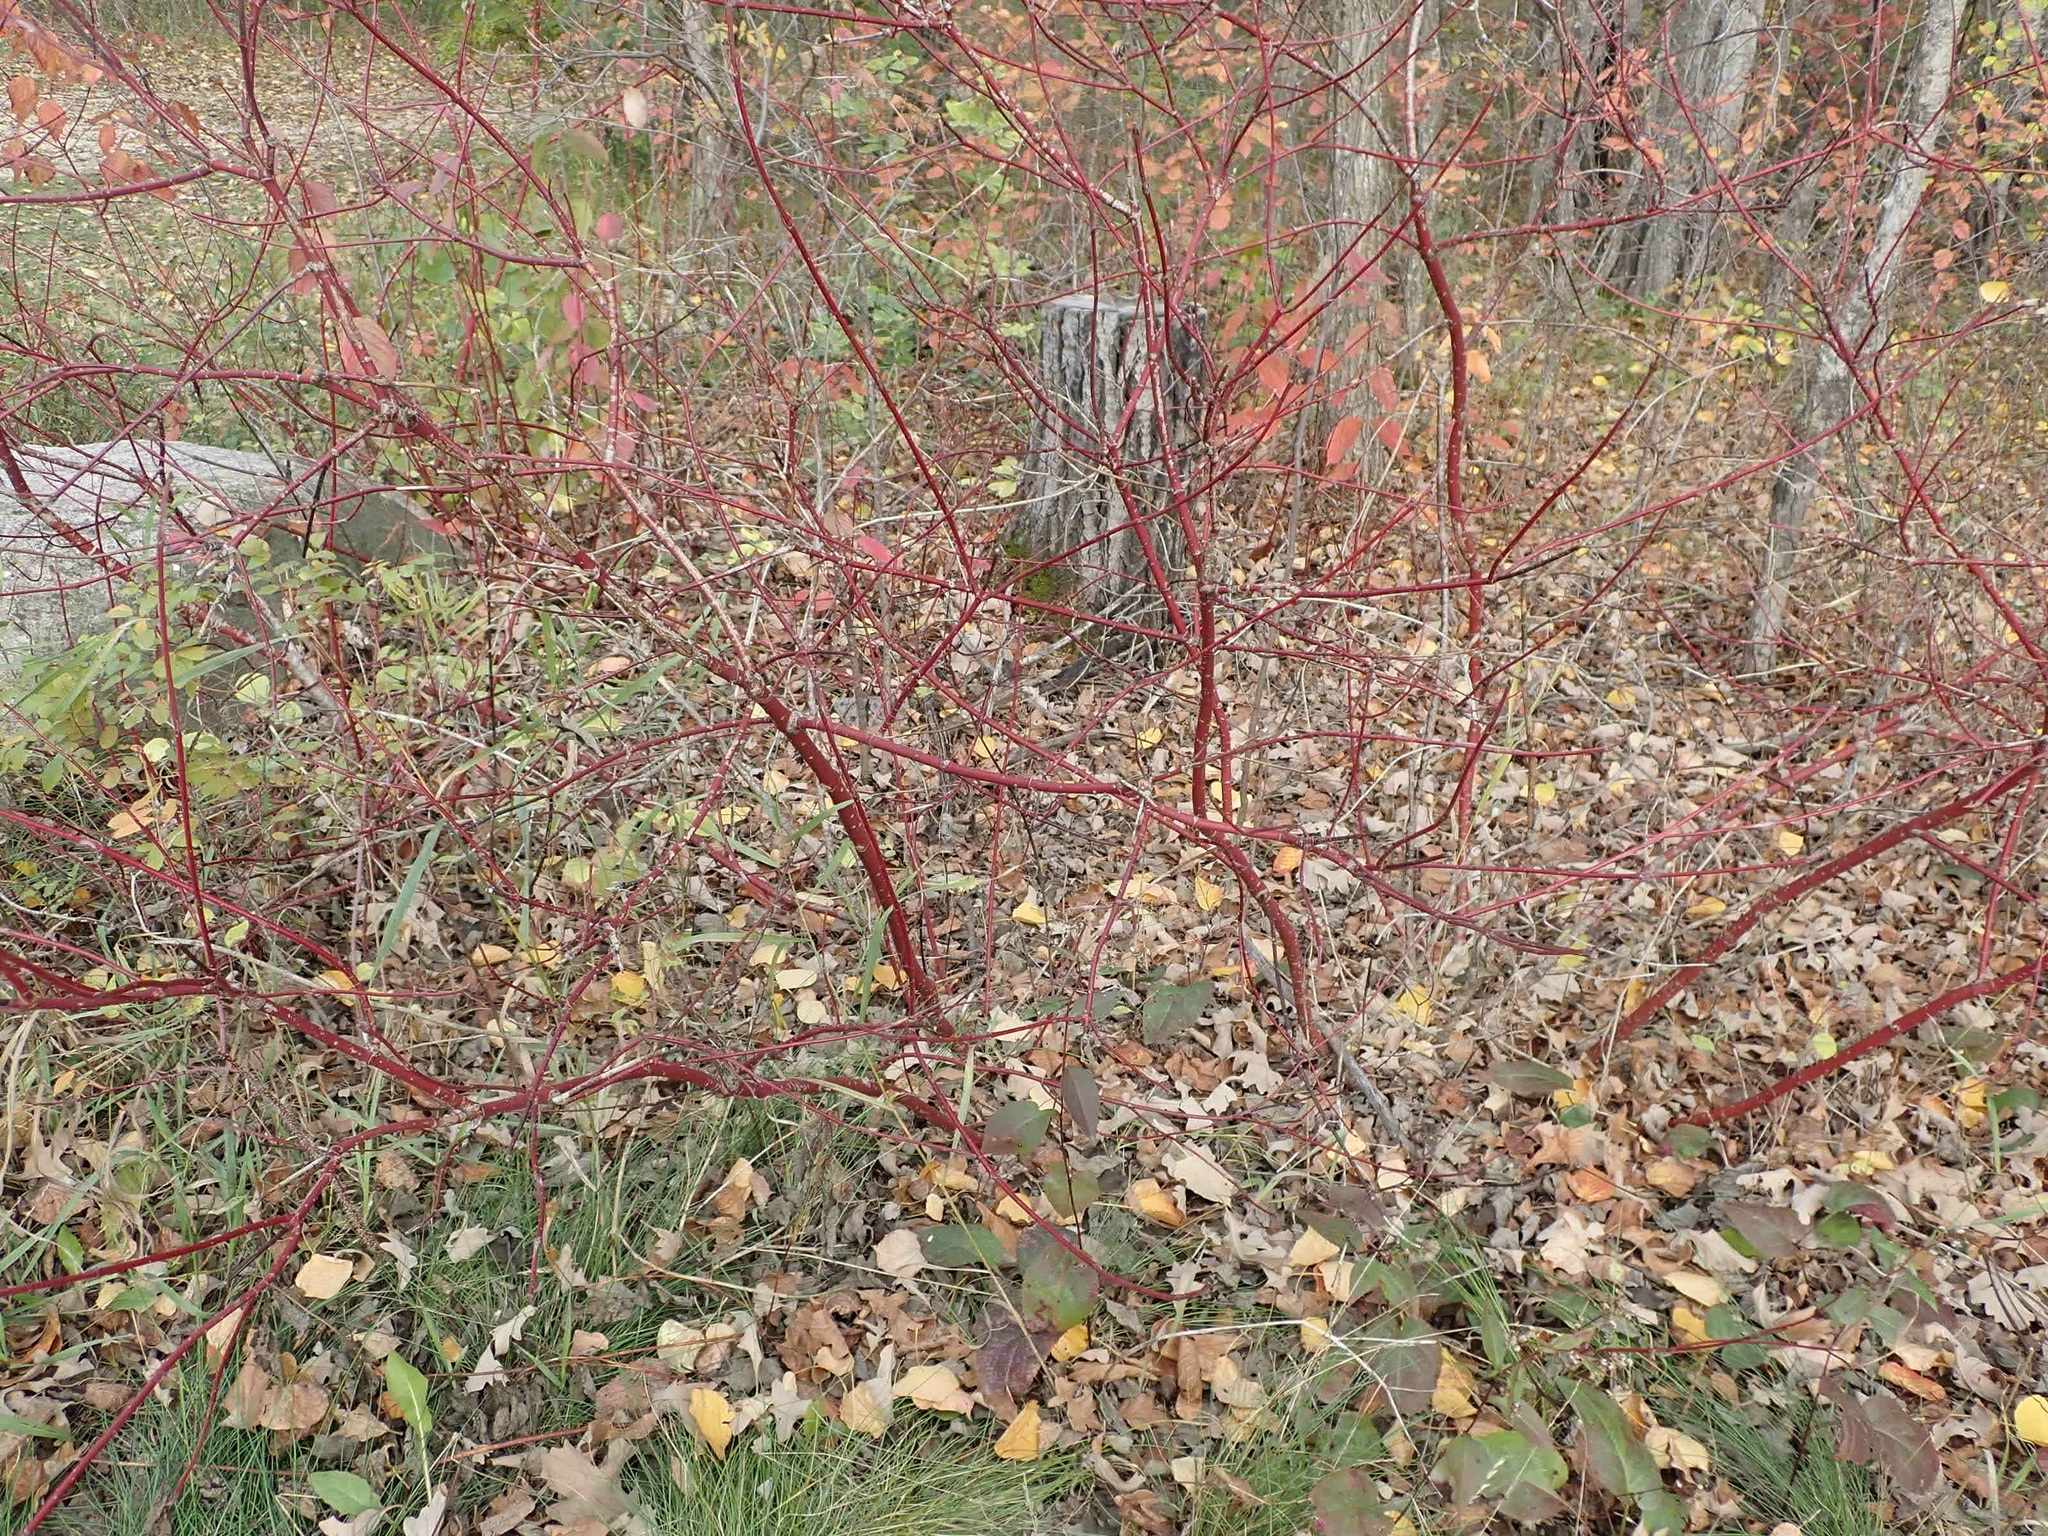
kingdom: Plantae
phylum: Tracheophyta
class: Magnoliopsida
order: Cornales
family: Cornaceae
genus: Cornus
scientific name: Cornus sericea
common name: Red-osier dogwood
